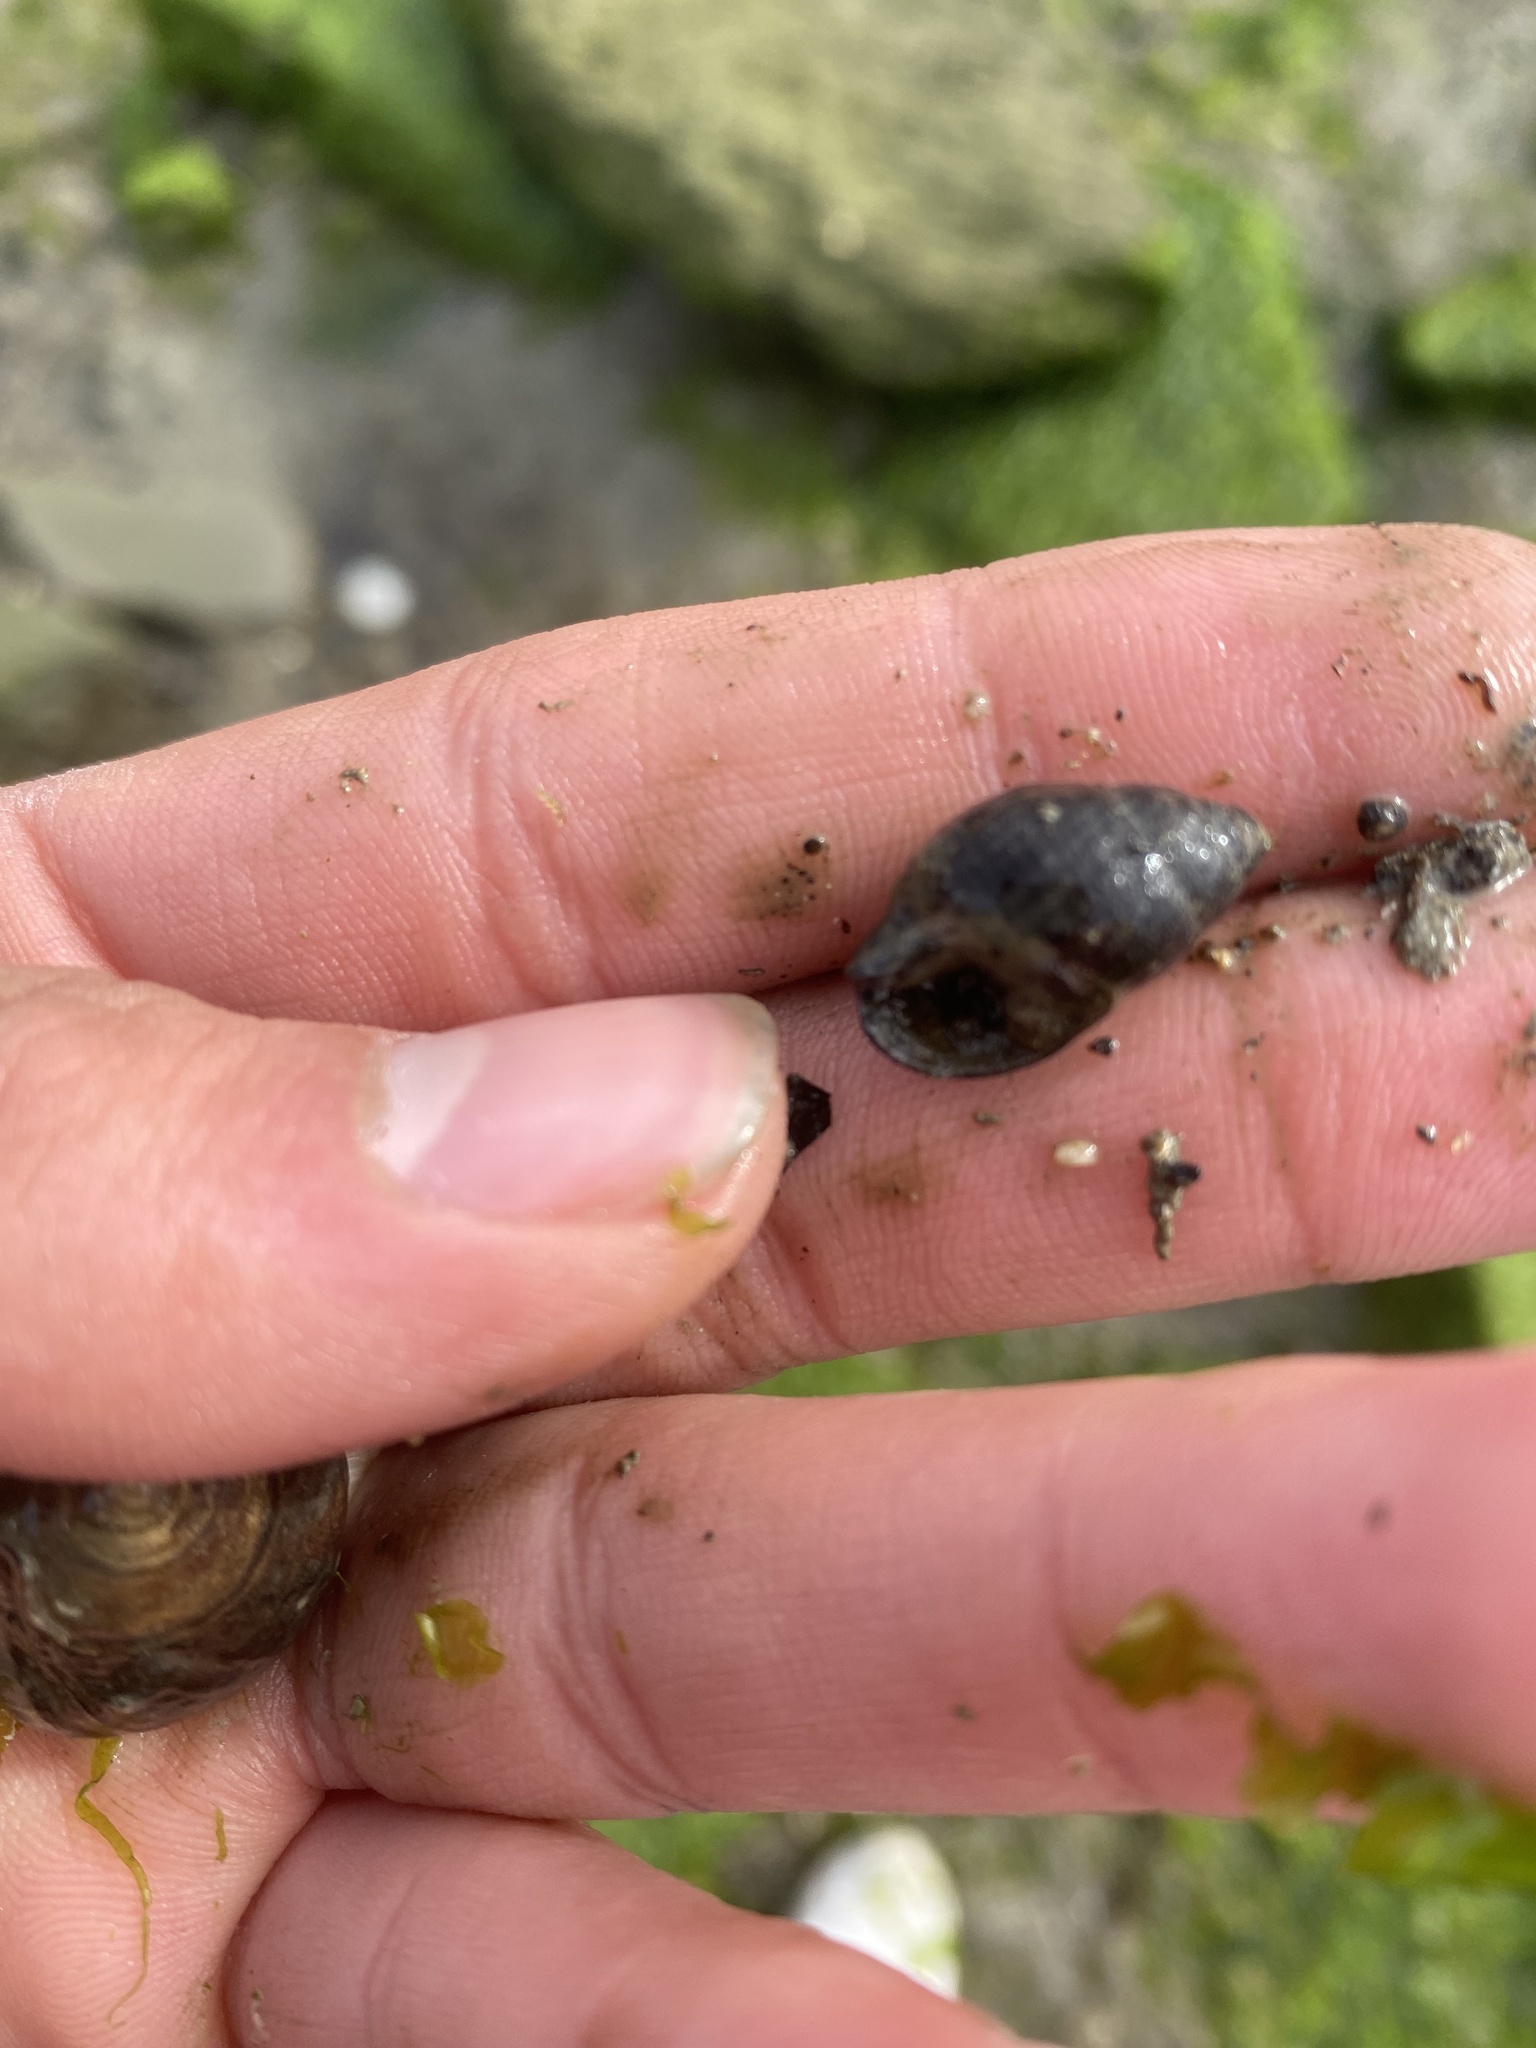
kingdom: Animalia
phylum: Mollusca
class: Gastropoda
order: Neogastropoda
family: Nassariidae
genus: Ilyanassa
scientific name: Ilyanassa obsoleta
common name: Eastern mudsnail
